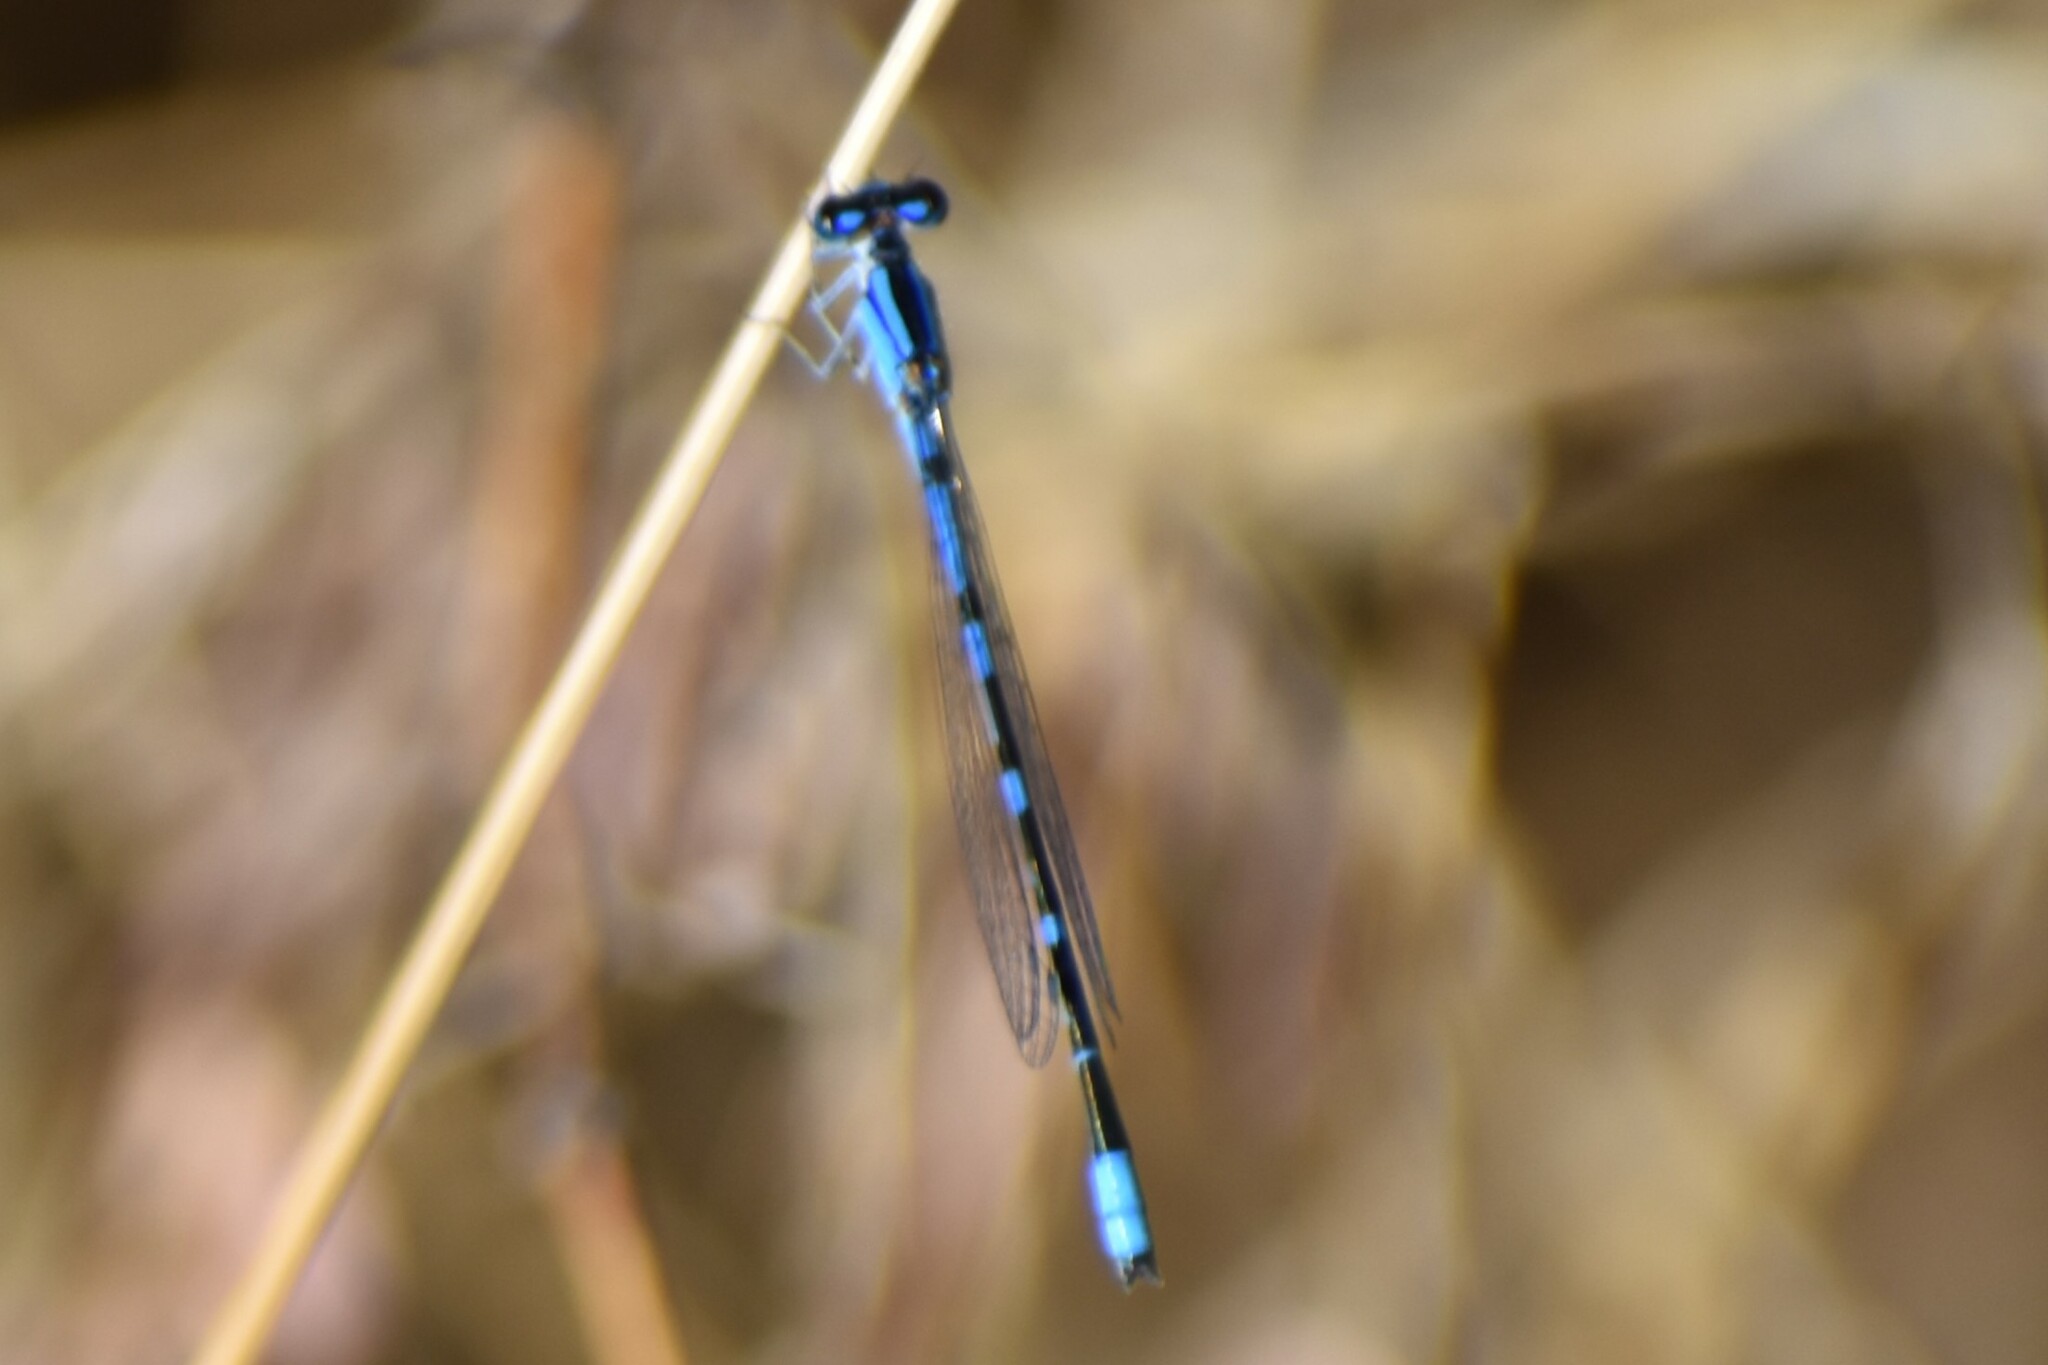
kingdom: Animalia
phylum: Arthropoda
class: Insecta
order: Odonata
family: Coenagrionidae
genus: Enallagma
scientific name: Enallagma praevarum
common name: Arroyo bluet
